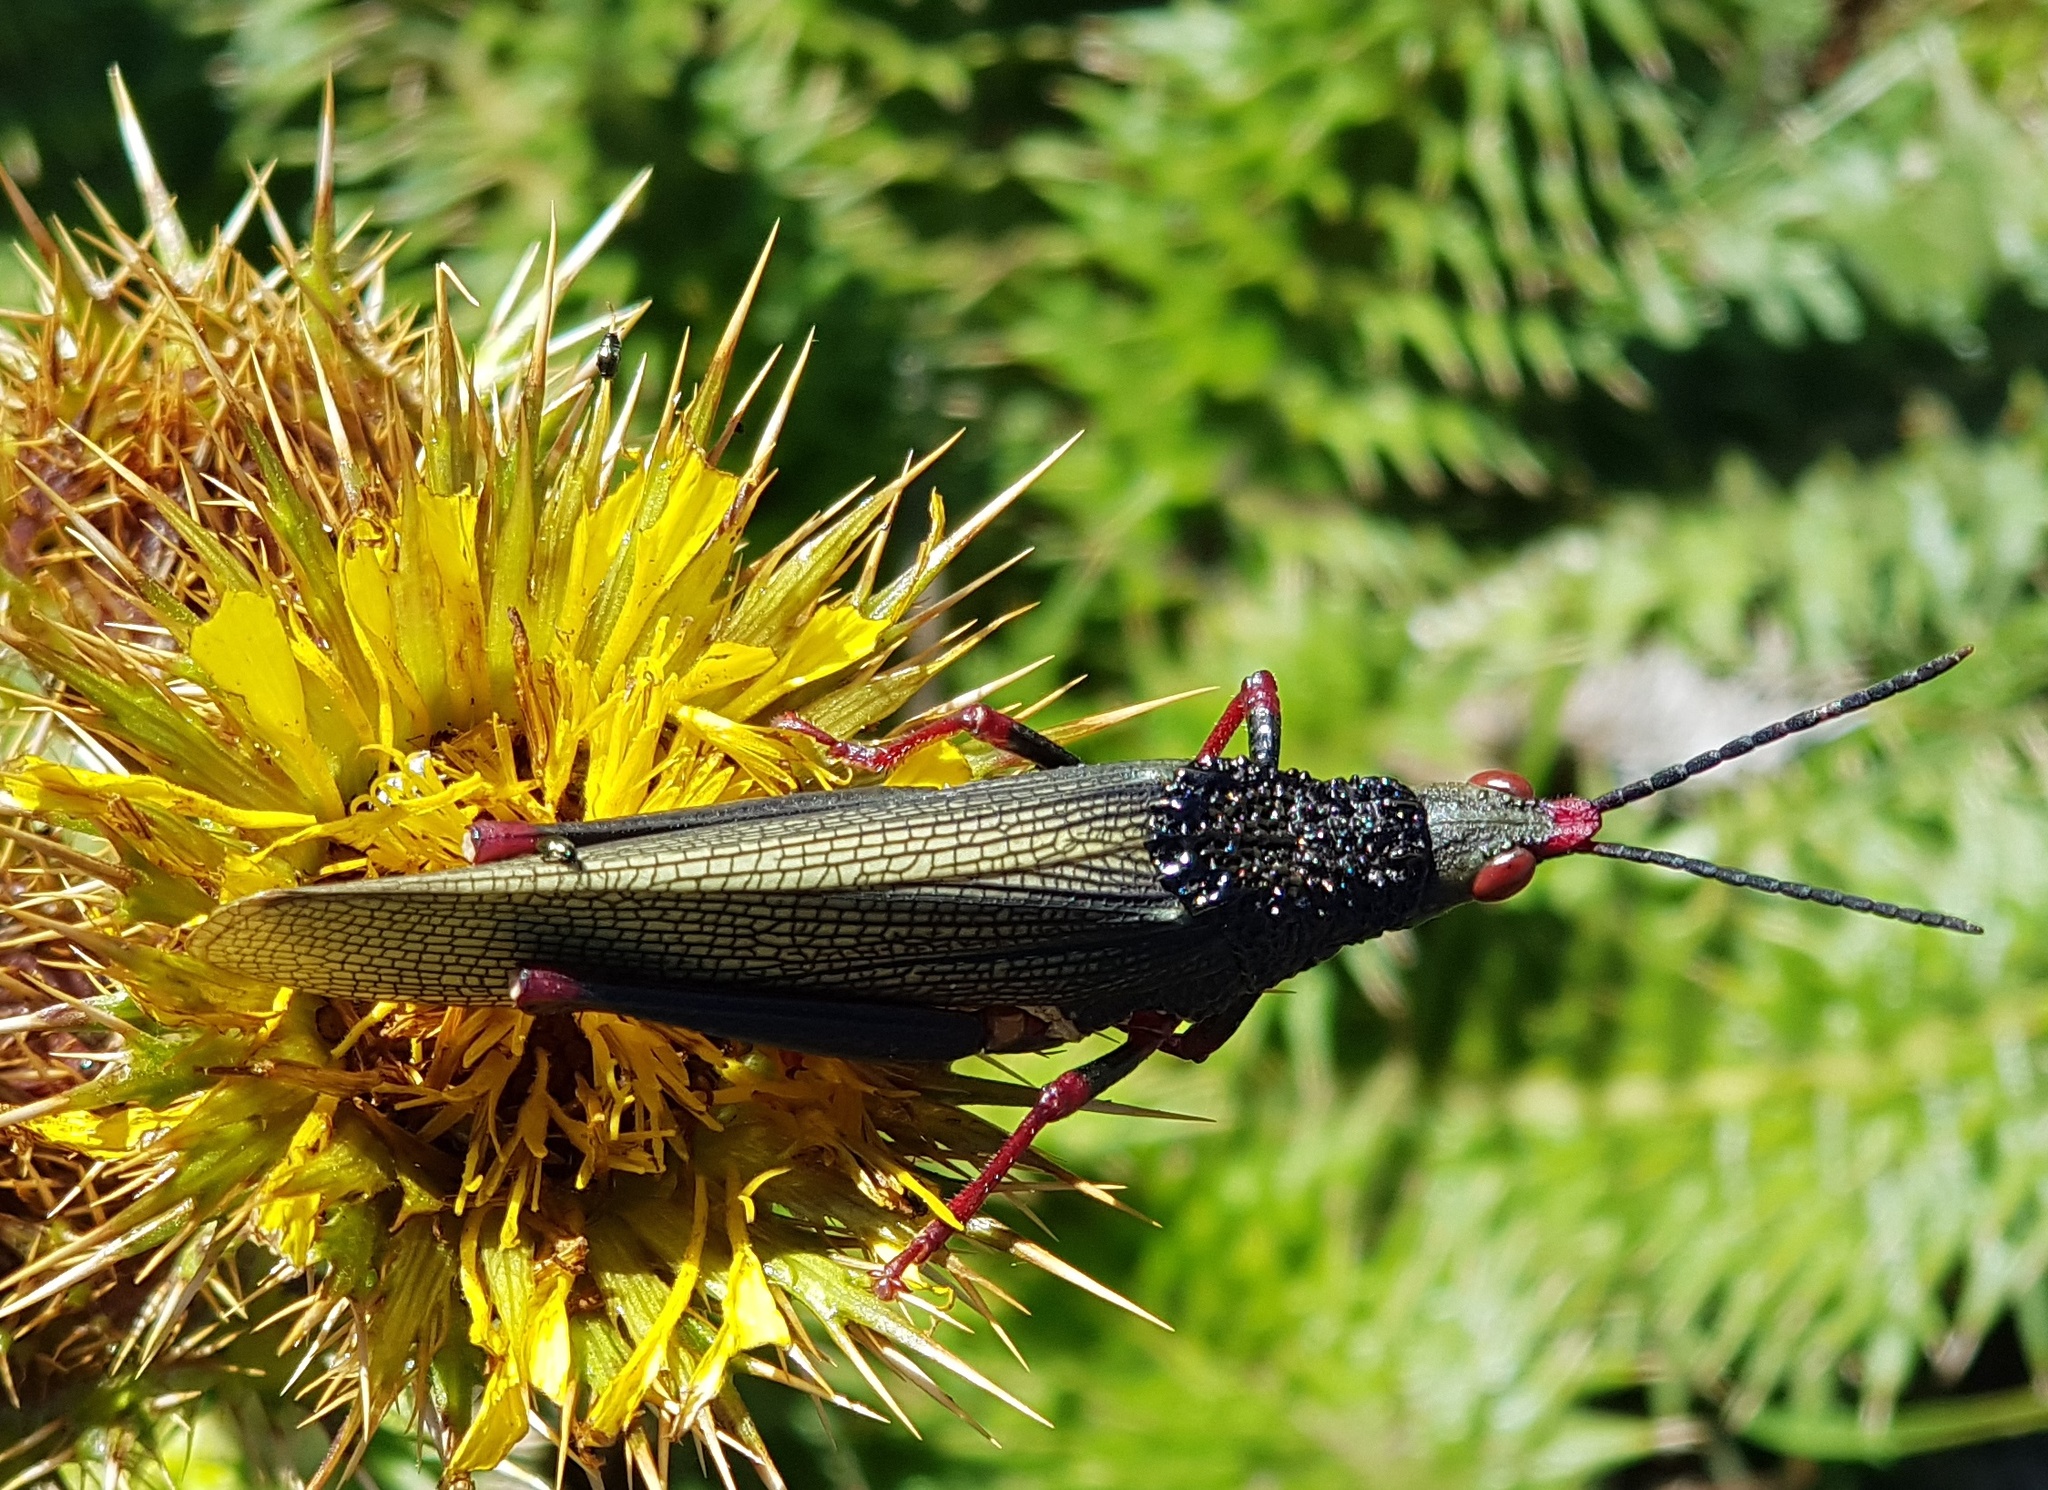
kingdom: Animalia
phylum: Arthropoda
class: Insecta
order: Orthoptera
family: Pyrgomorphidae
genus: Taphronota
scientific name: Taphronota stali
